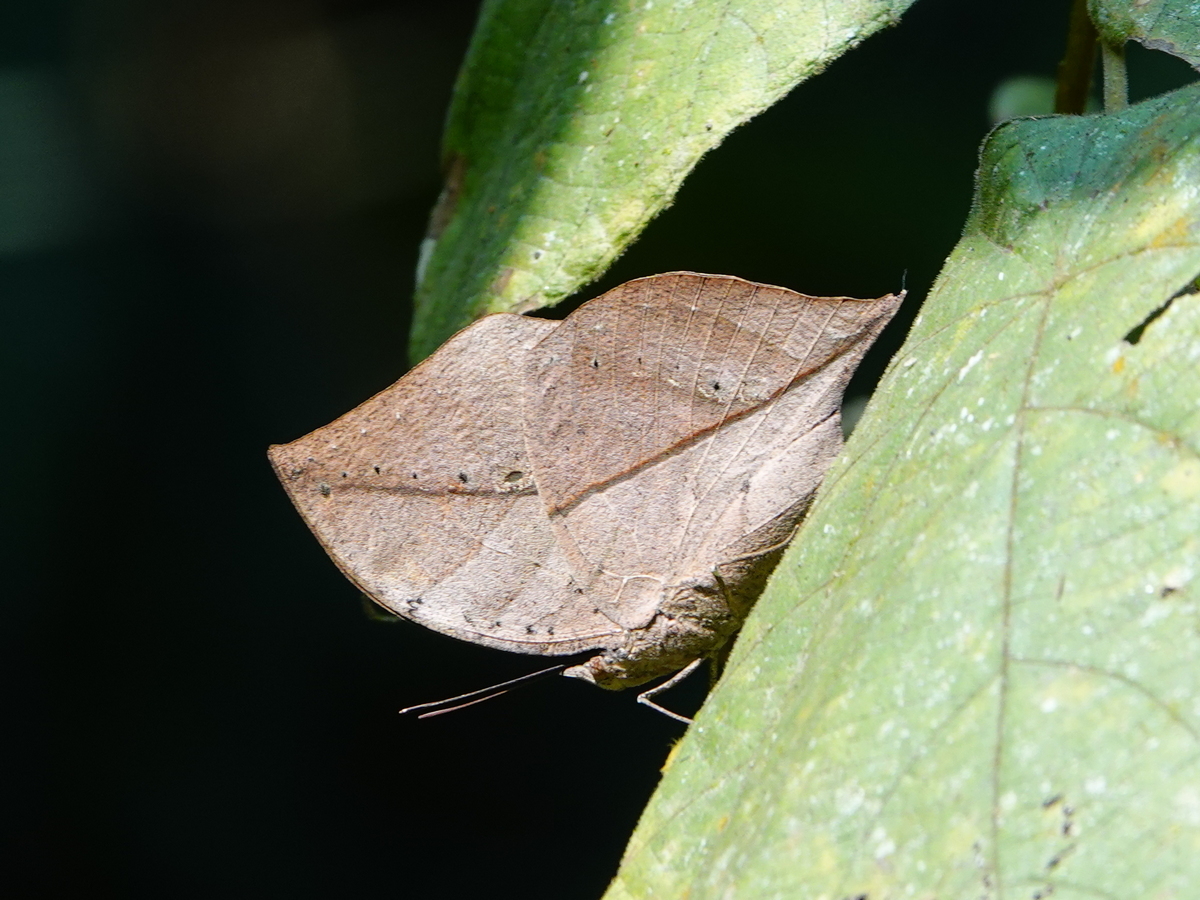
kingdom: Animalia
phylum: Arthropoda
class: Insecta
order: Lepidoptera
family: Nymphalidae
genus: Kallima
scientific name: Kallima inachus
